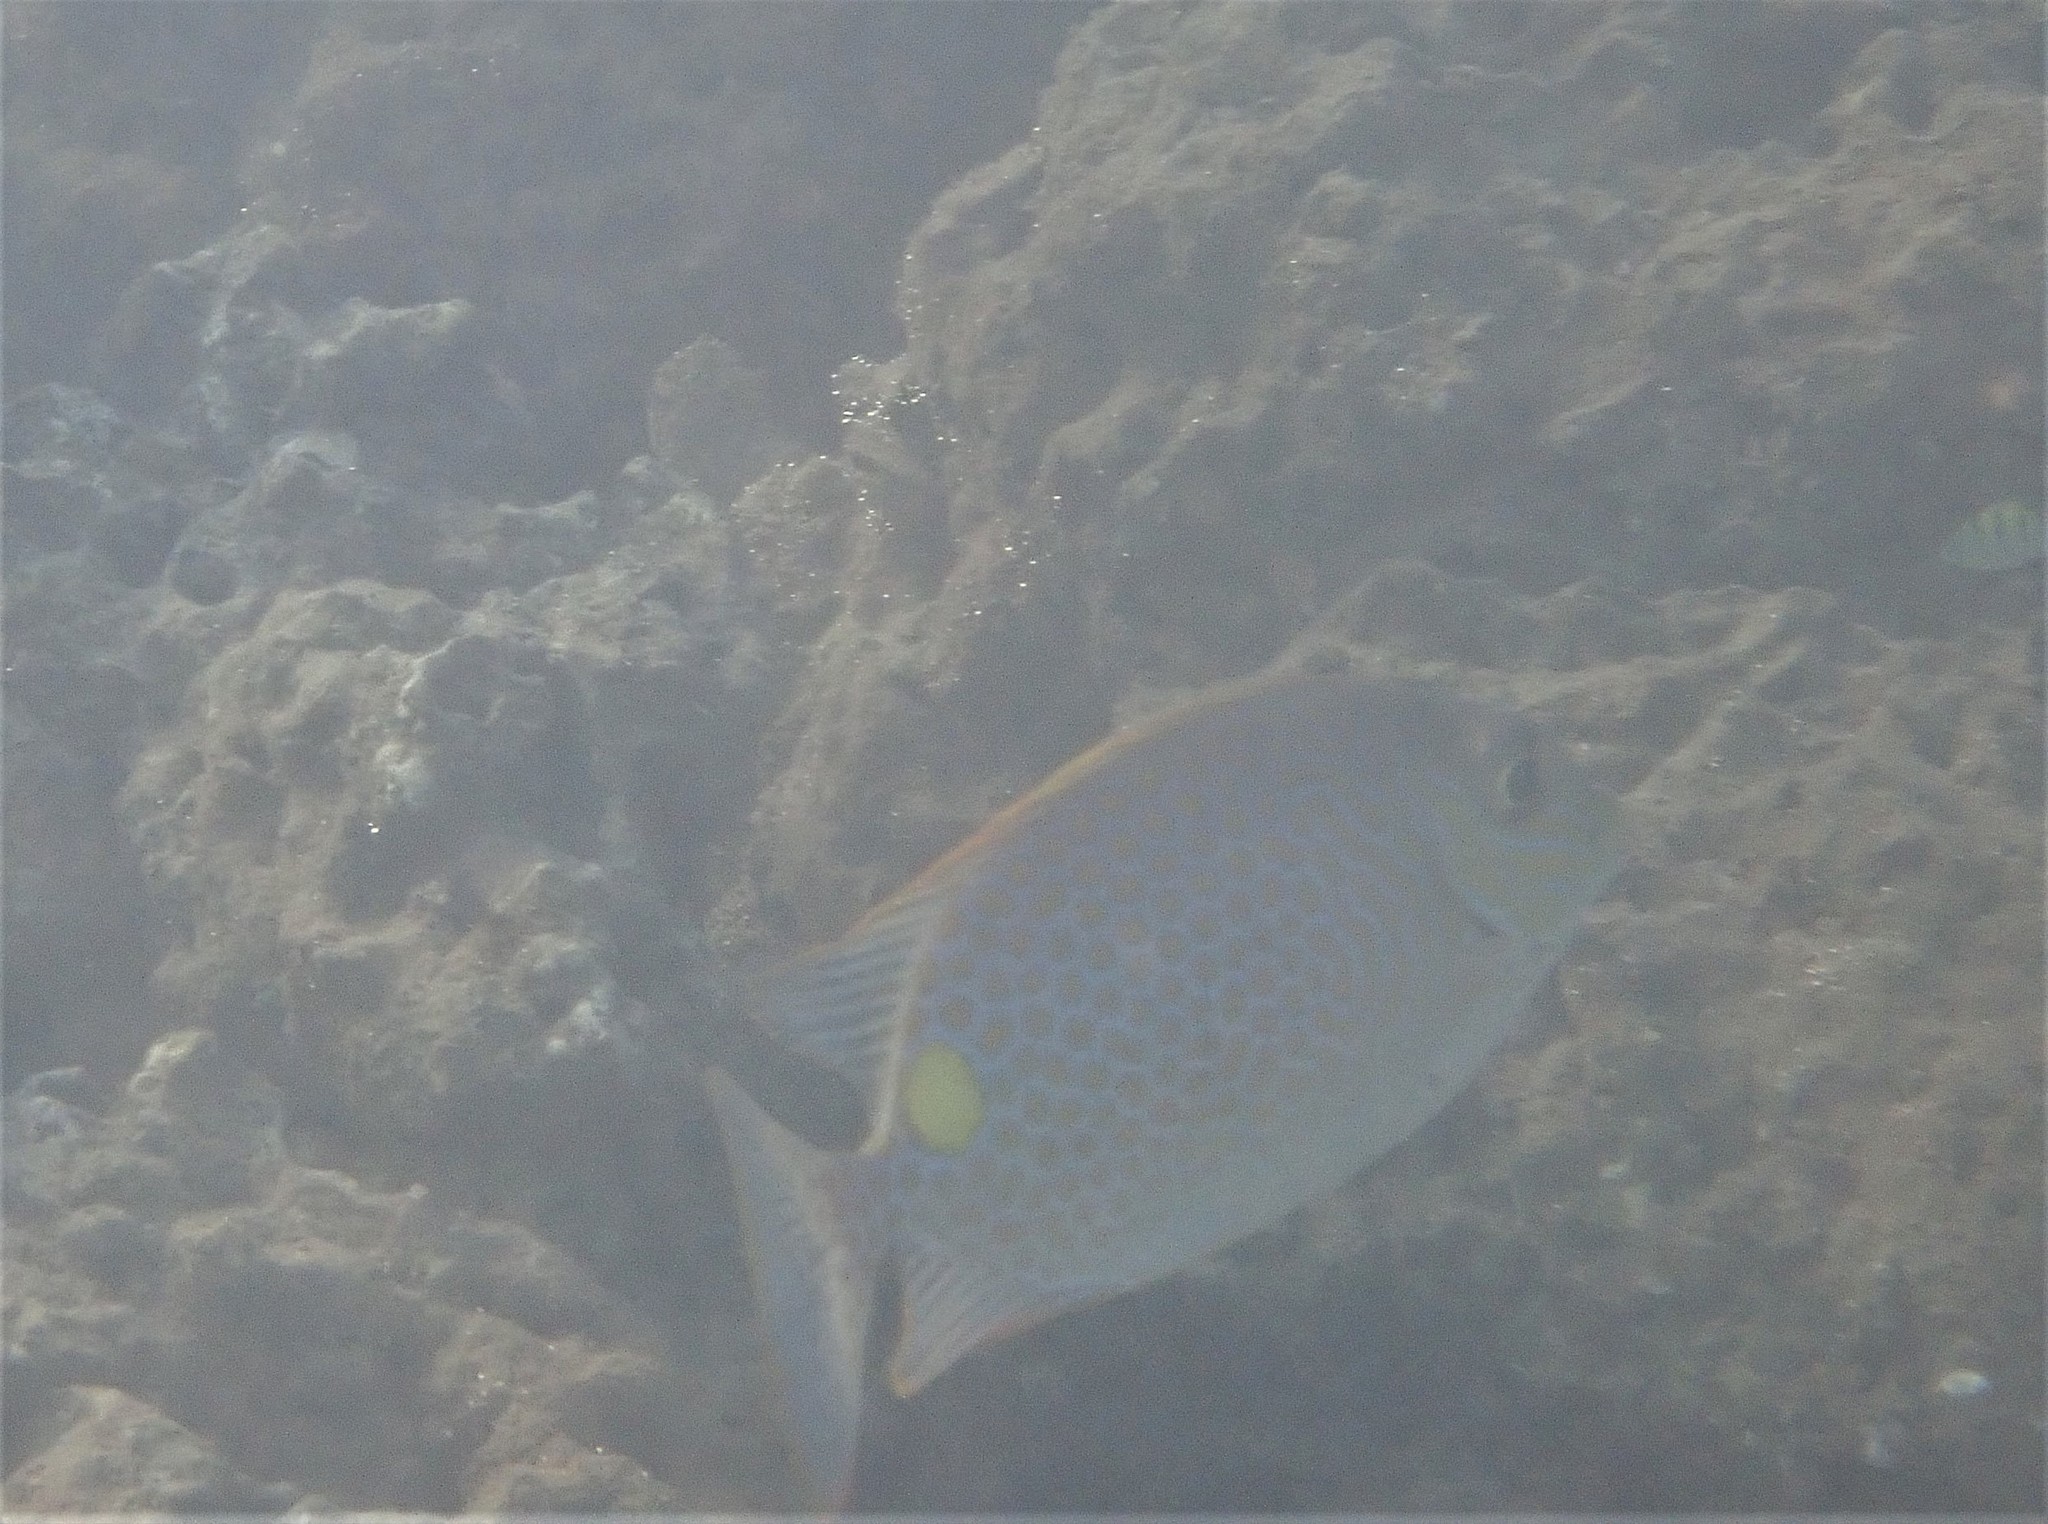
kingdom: Animalia
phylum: Chordata
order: Perciformes
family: Siganidae
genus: Siganus
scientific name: Siganus guttatus
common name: Golden rabbitfish
